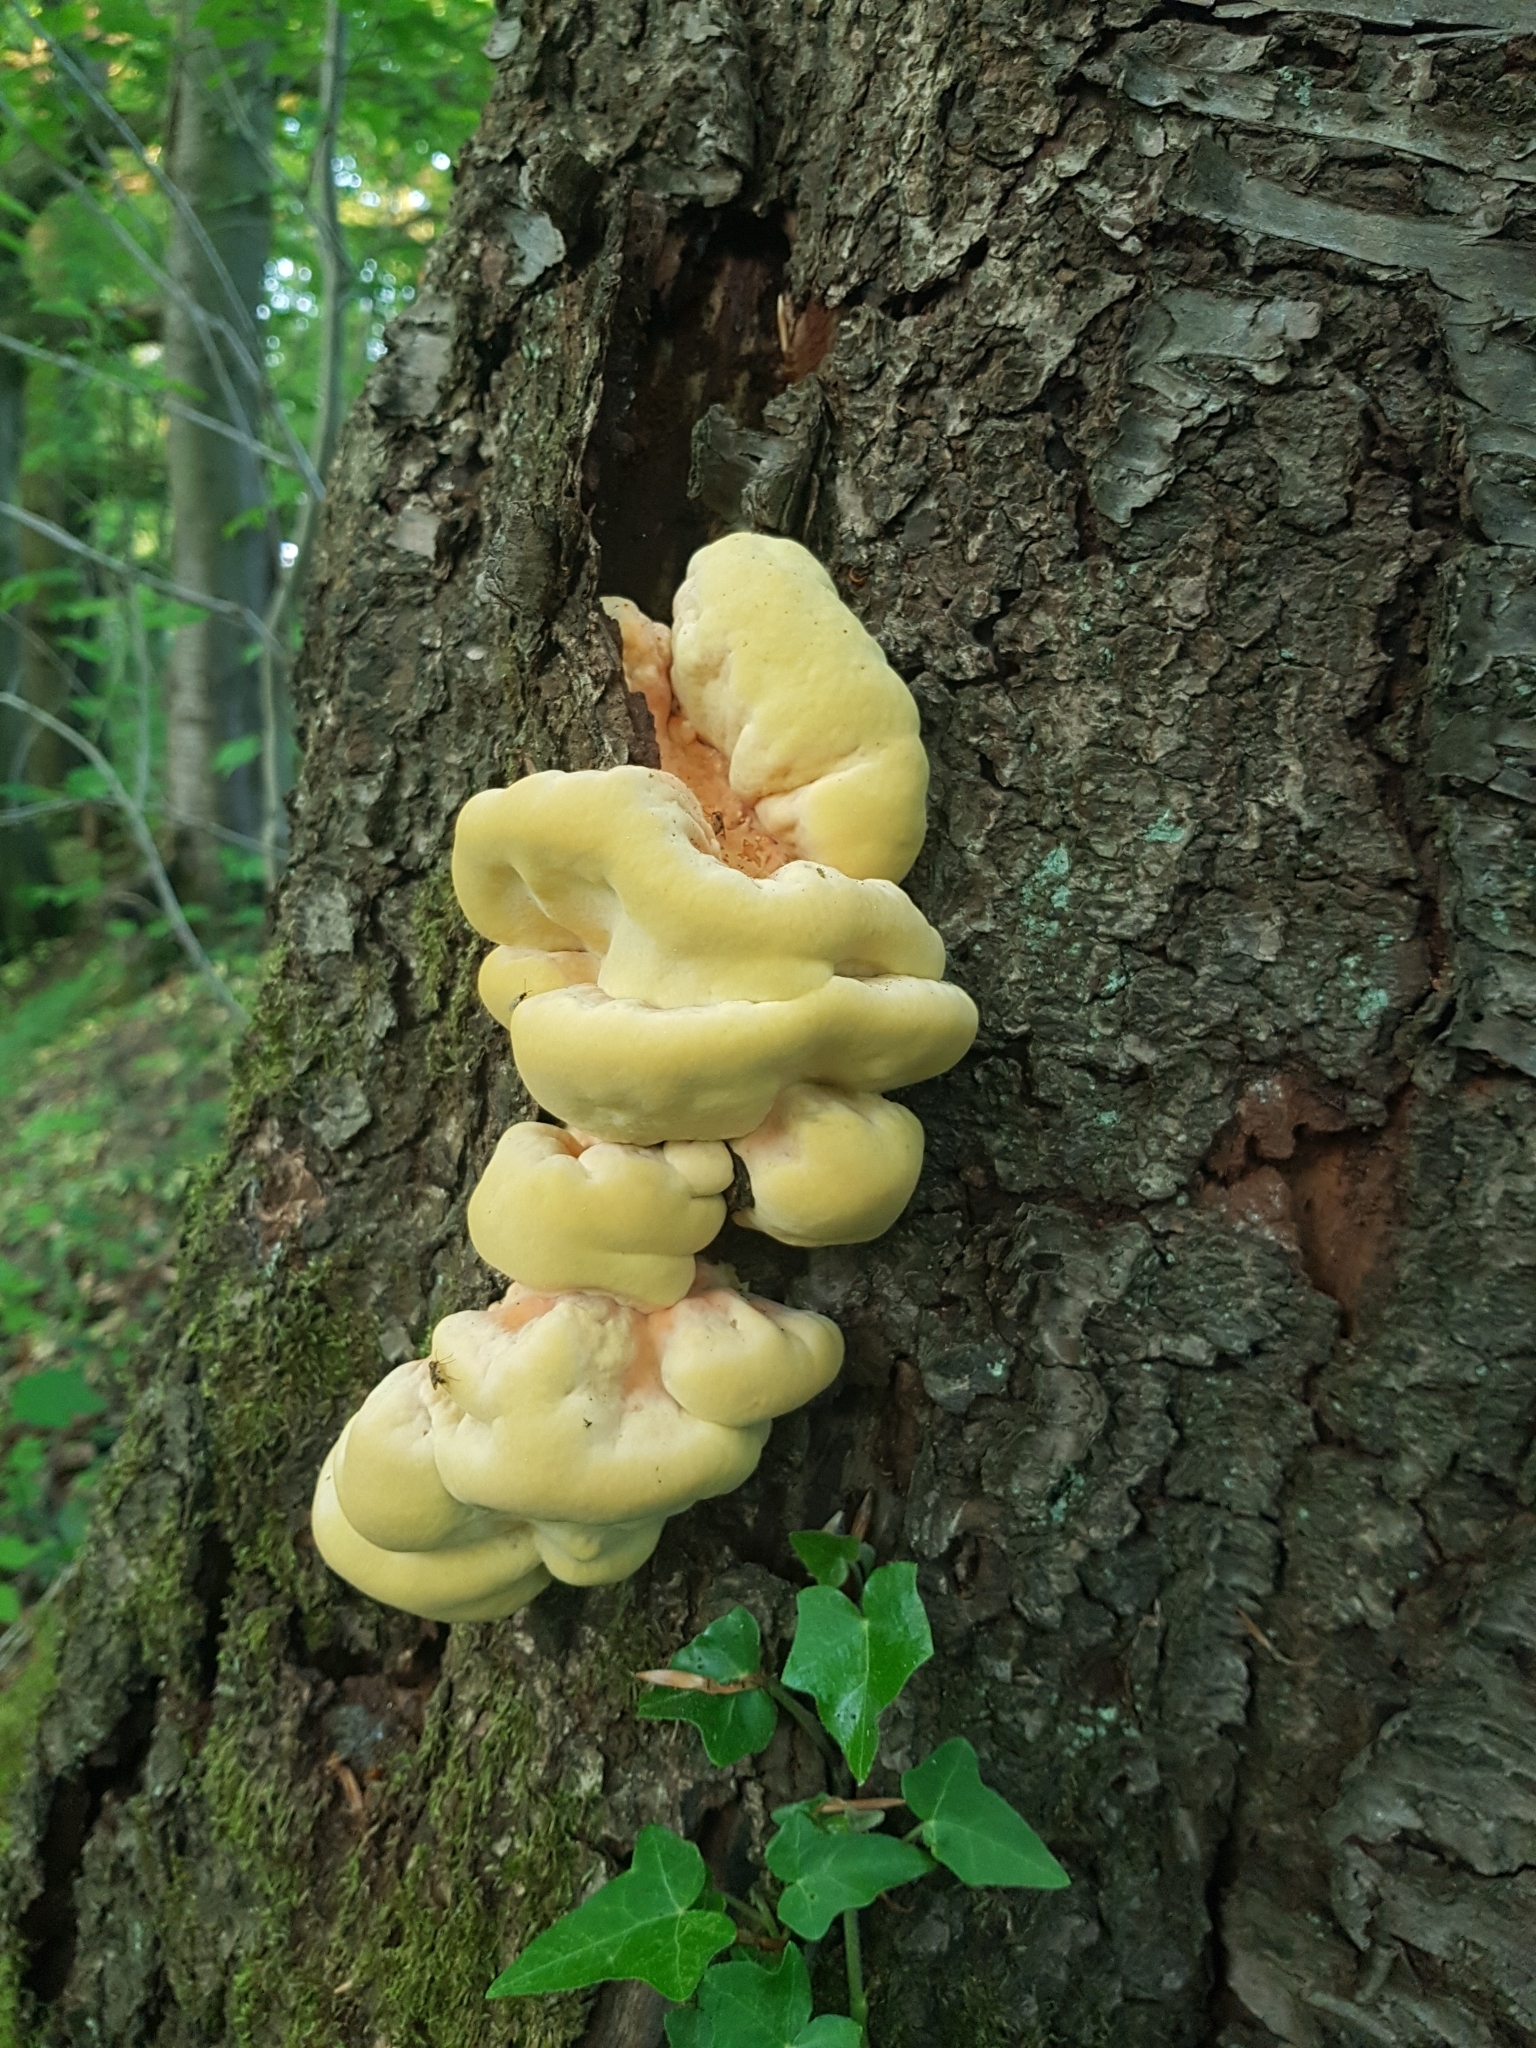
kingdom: Fungi
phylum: Basidiomycota
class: Agaricomycetes
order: Polyporales
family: Laetiporaceae
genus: Laetiporus
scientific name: Laetiporus sulphureus
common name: Chicken of the woods
